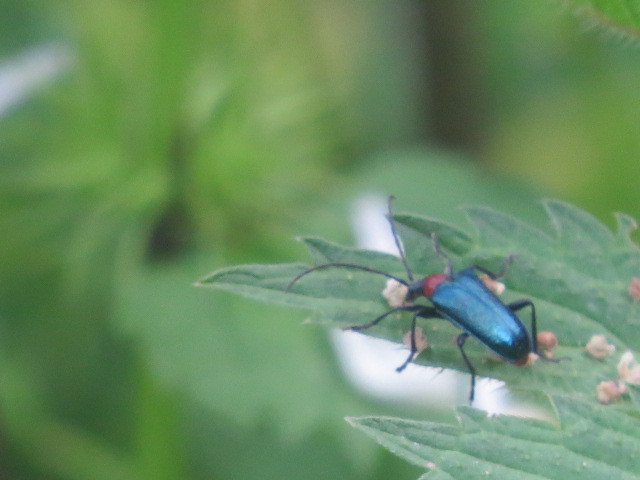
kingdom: Animalia
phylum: Arthropoda
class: Insecta
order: Coleoptera
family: Cerambycidae
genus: Gaurotes
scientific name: Gaurotes virginea
